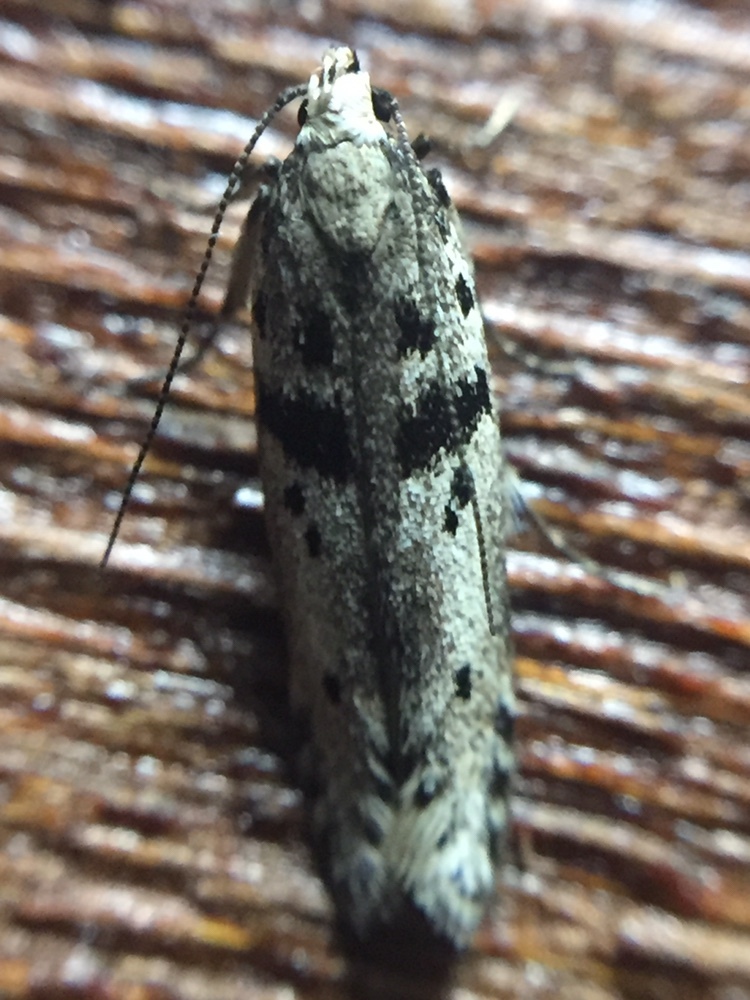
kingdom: Animalia
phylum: Arthropoda
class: Insecta
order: Lepidoptera
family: Gelechiidae
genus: Aristotelia
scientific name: Aristotelia paradesma
